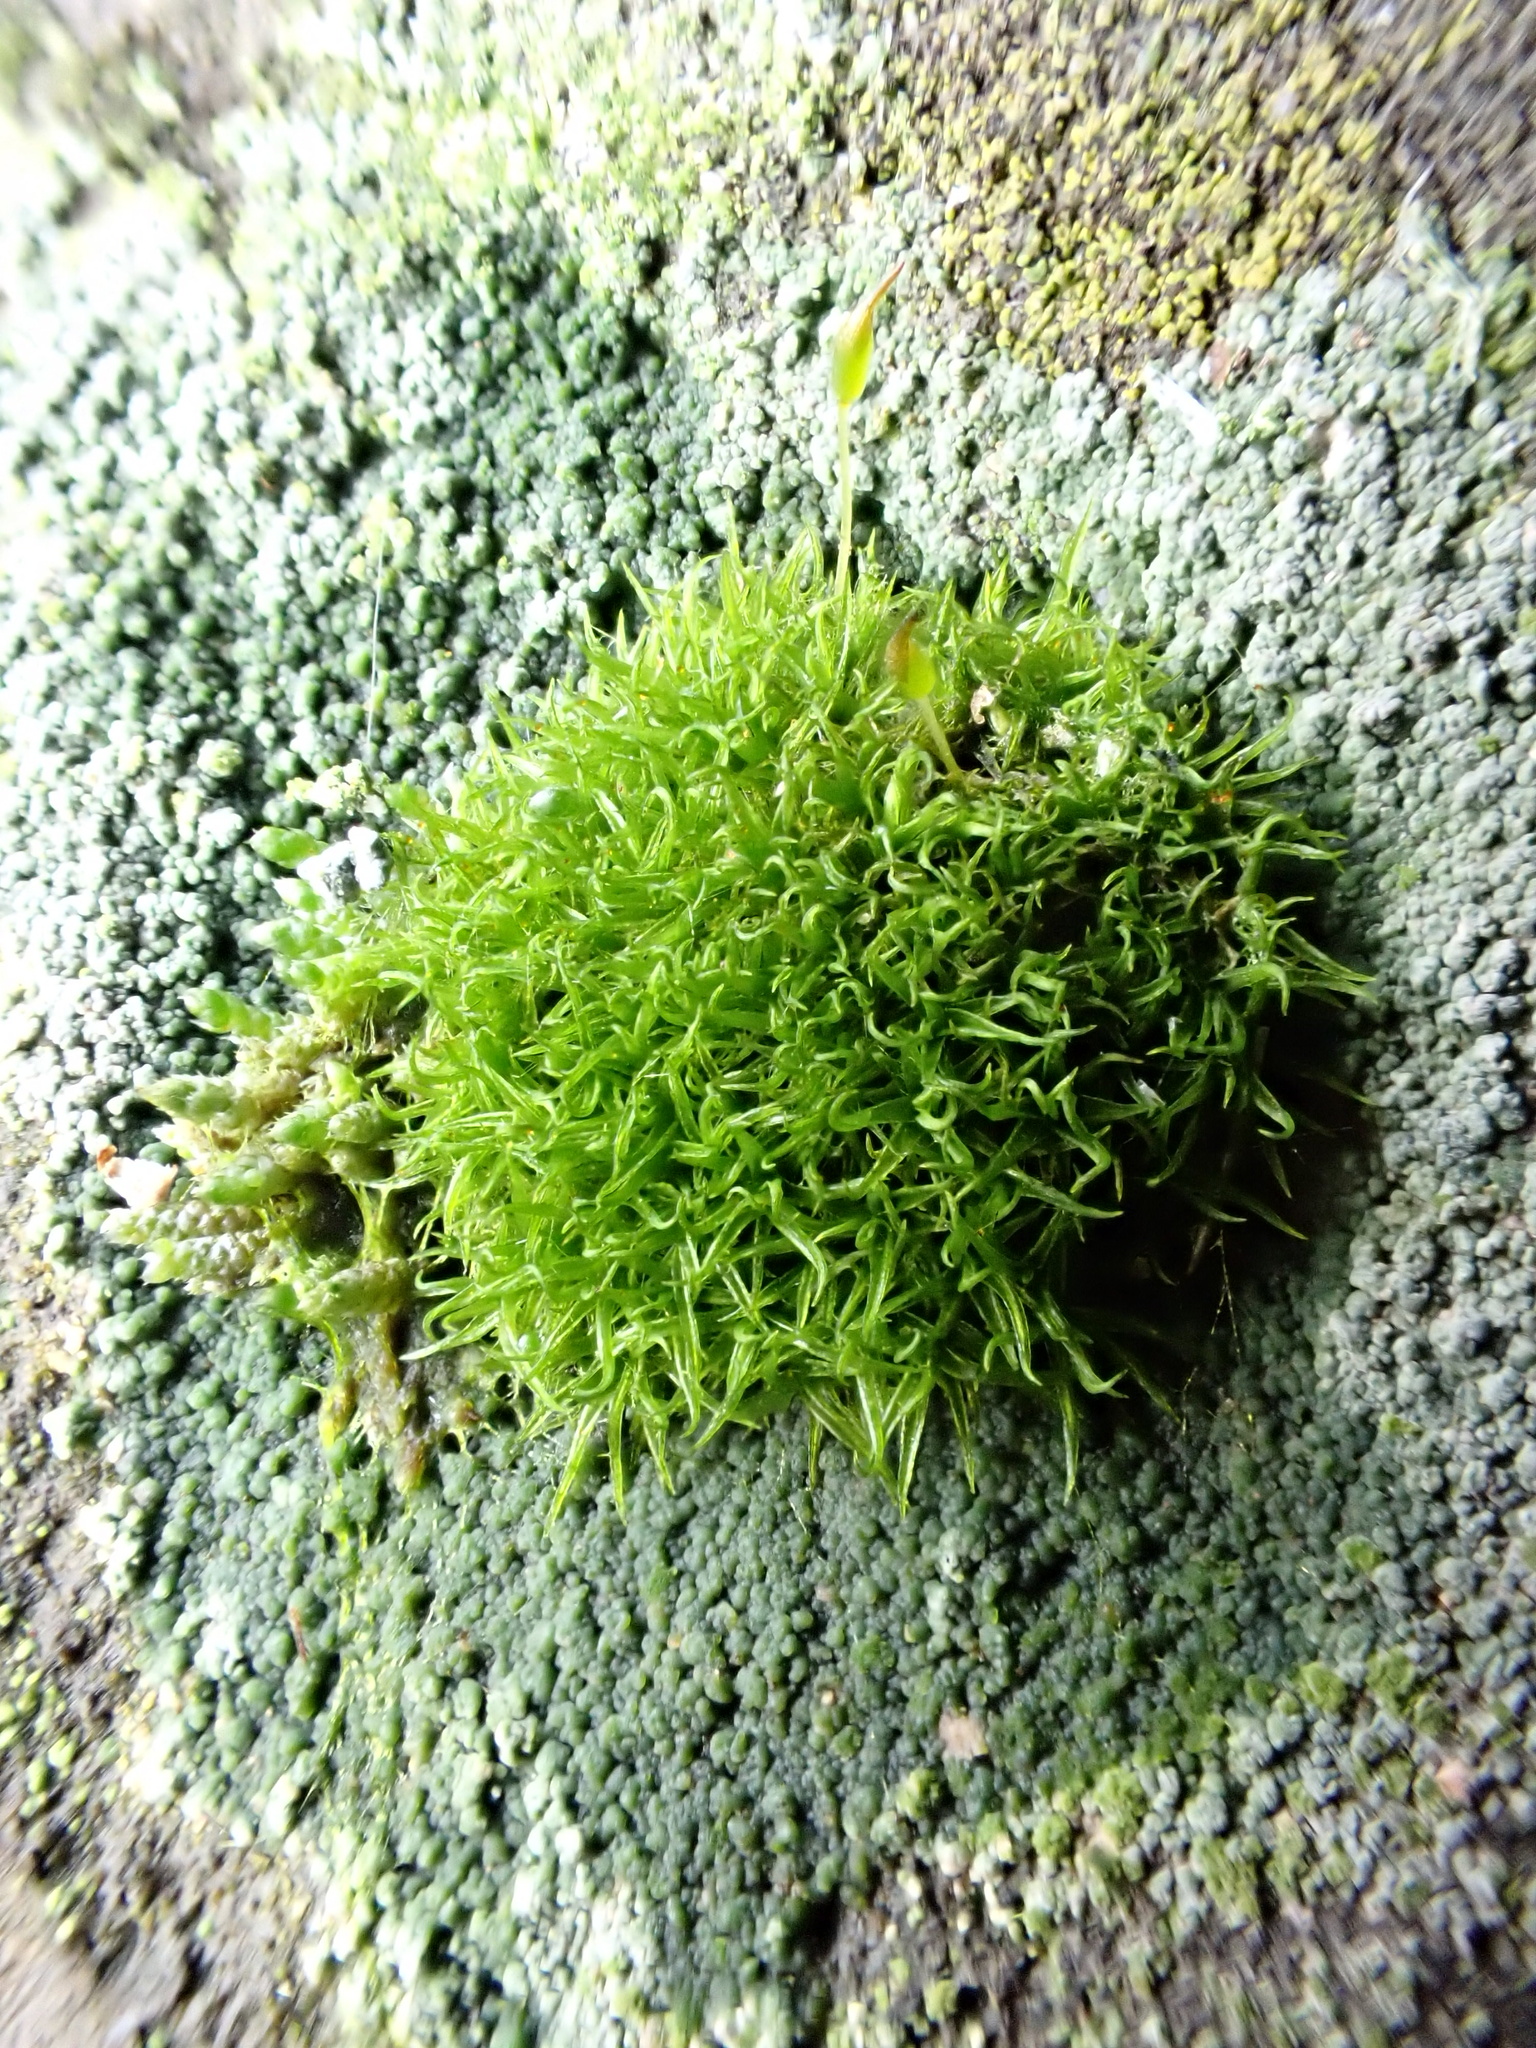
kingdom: Plantae
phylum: Bryophyta
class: Bryopsida
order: Dicranales
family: Rhabdoweisiaceae
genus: Dicranoweisia
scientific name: Dicranoweisia cirrata
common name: Common pincushion
